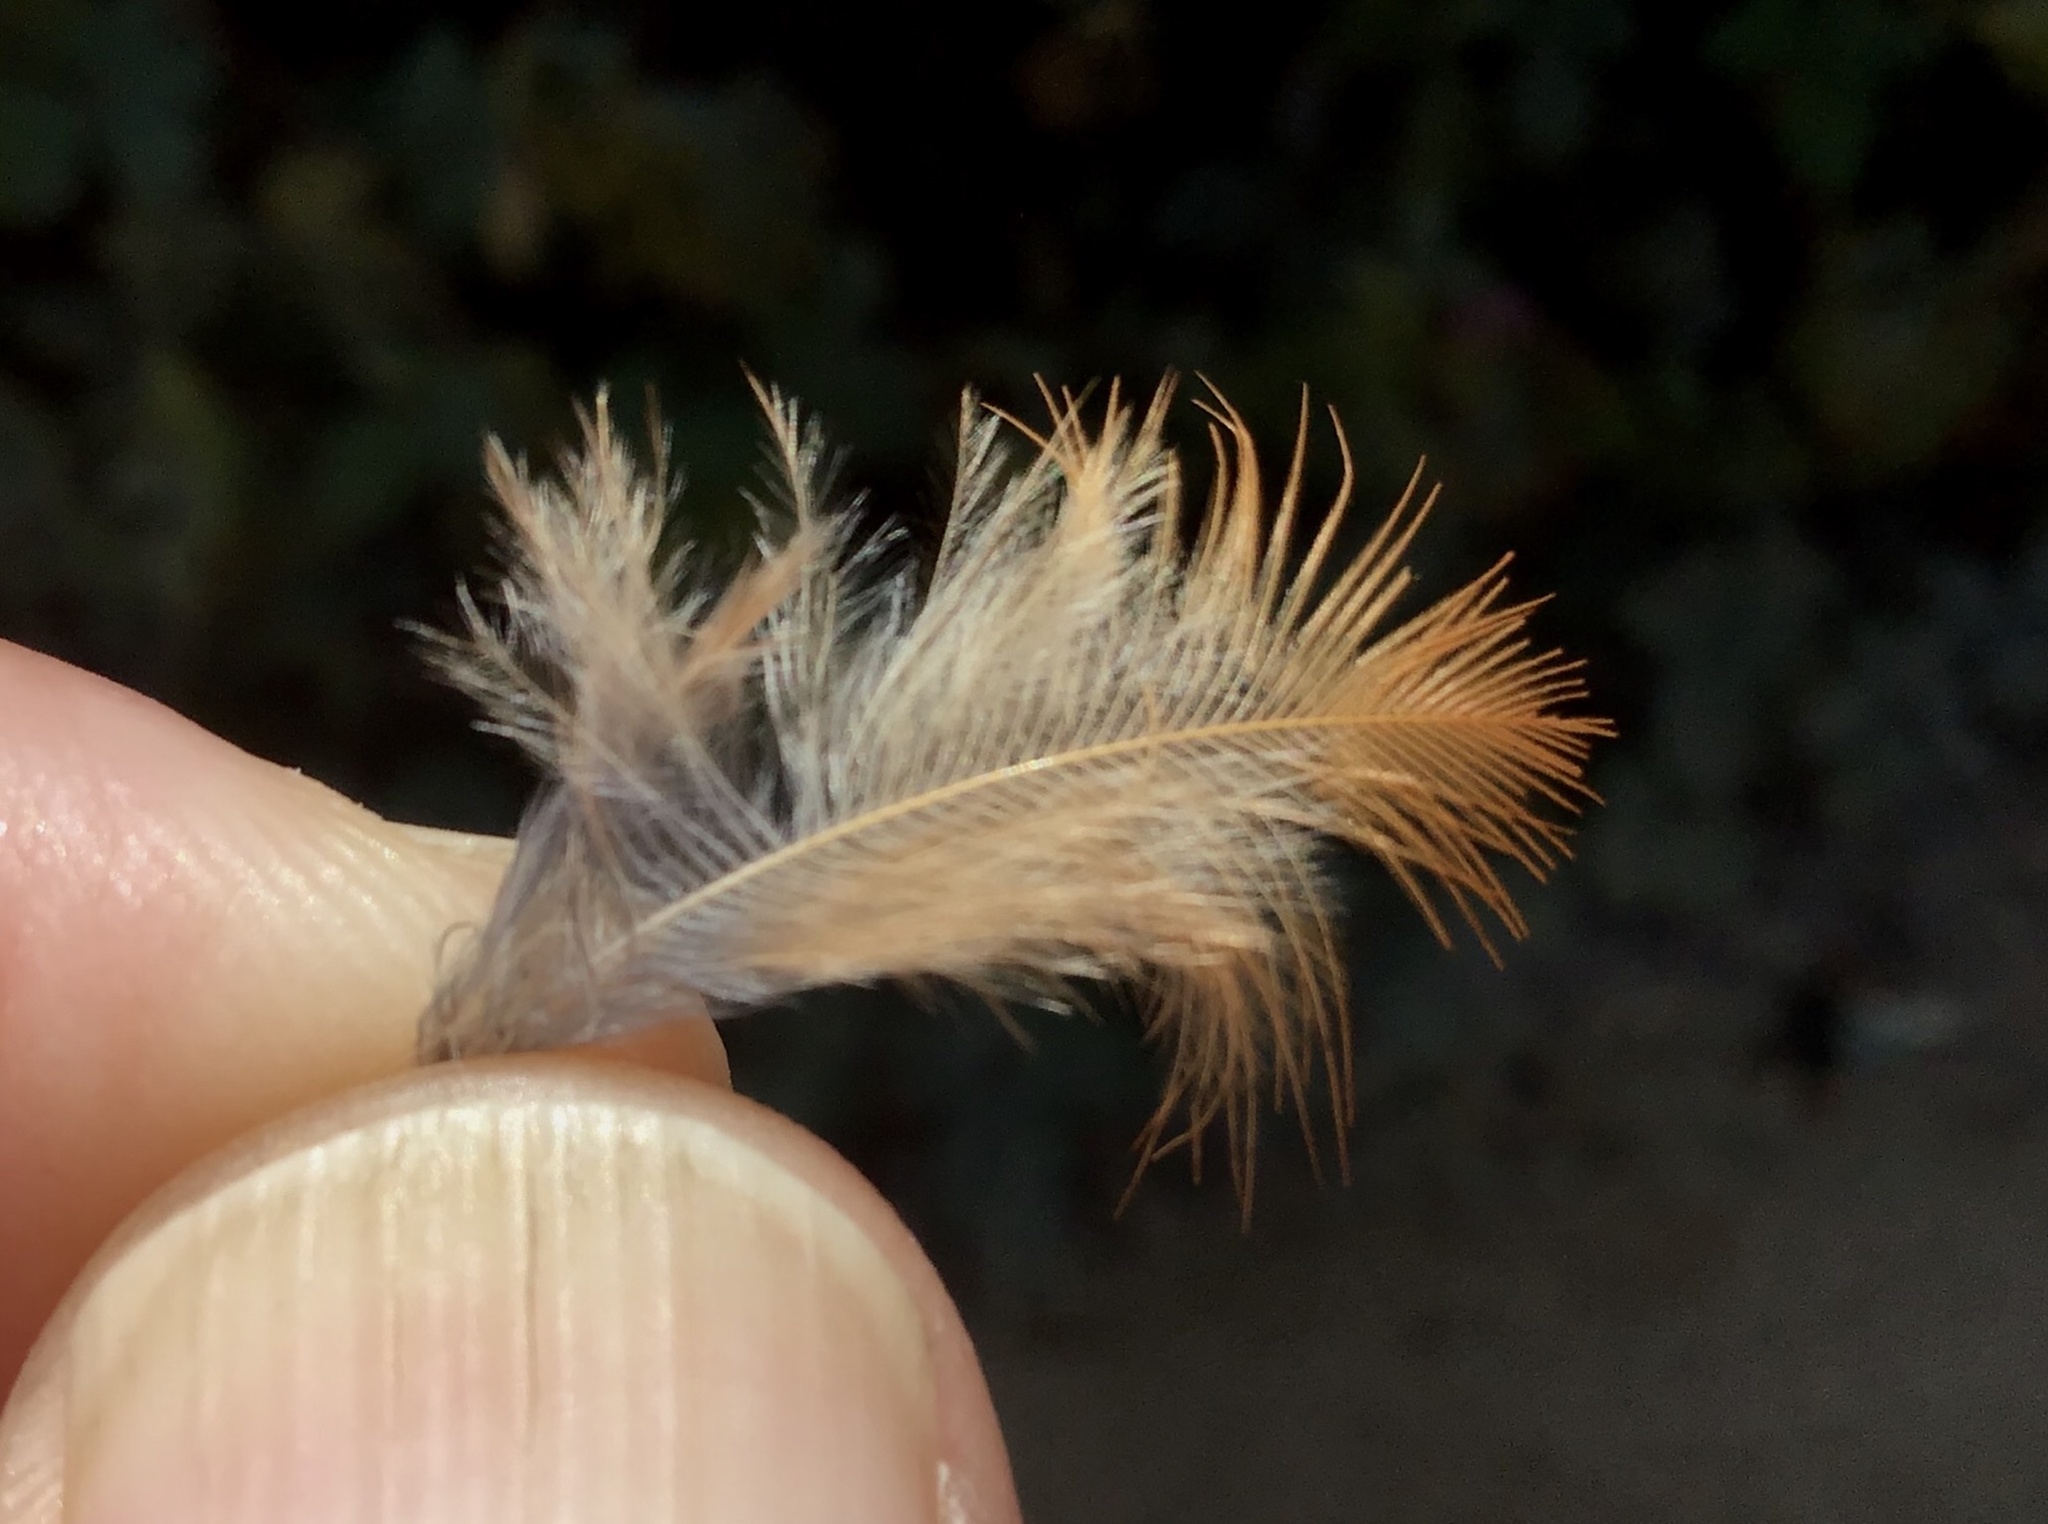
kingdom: Animalia
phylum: Chordata
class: Aves
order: Passeriformes
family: Turdidae
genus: Turdus
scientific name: Turdus migratorius
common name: American robin
